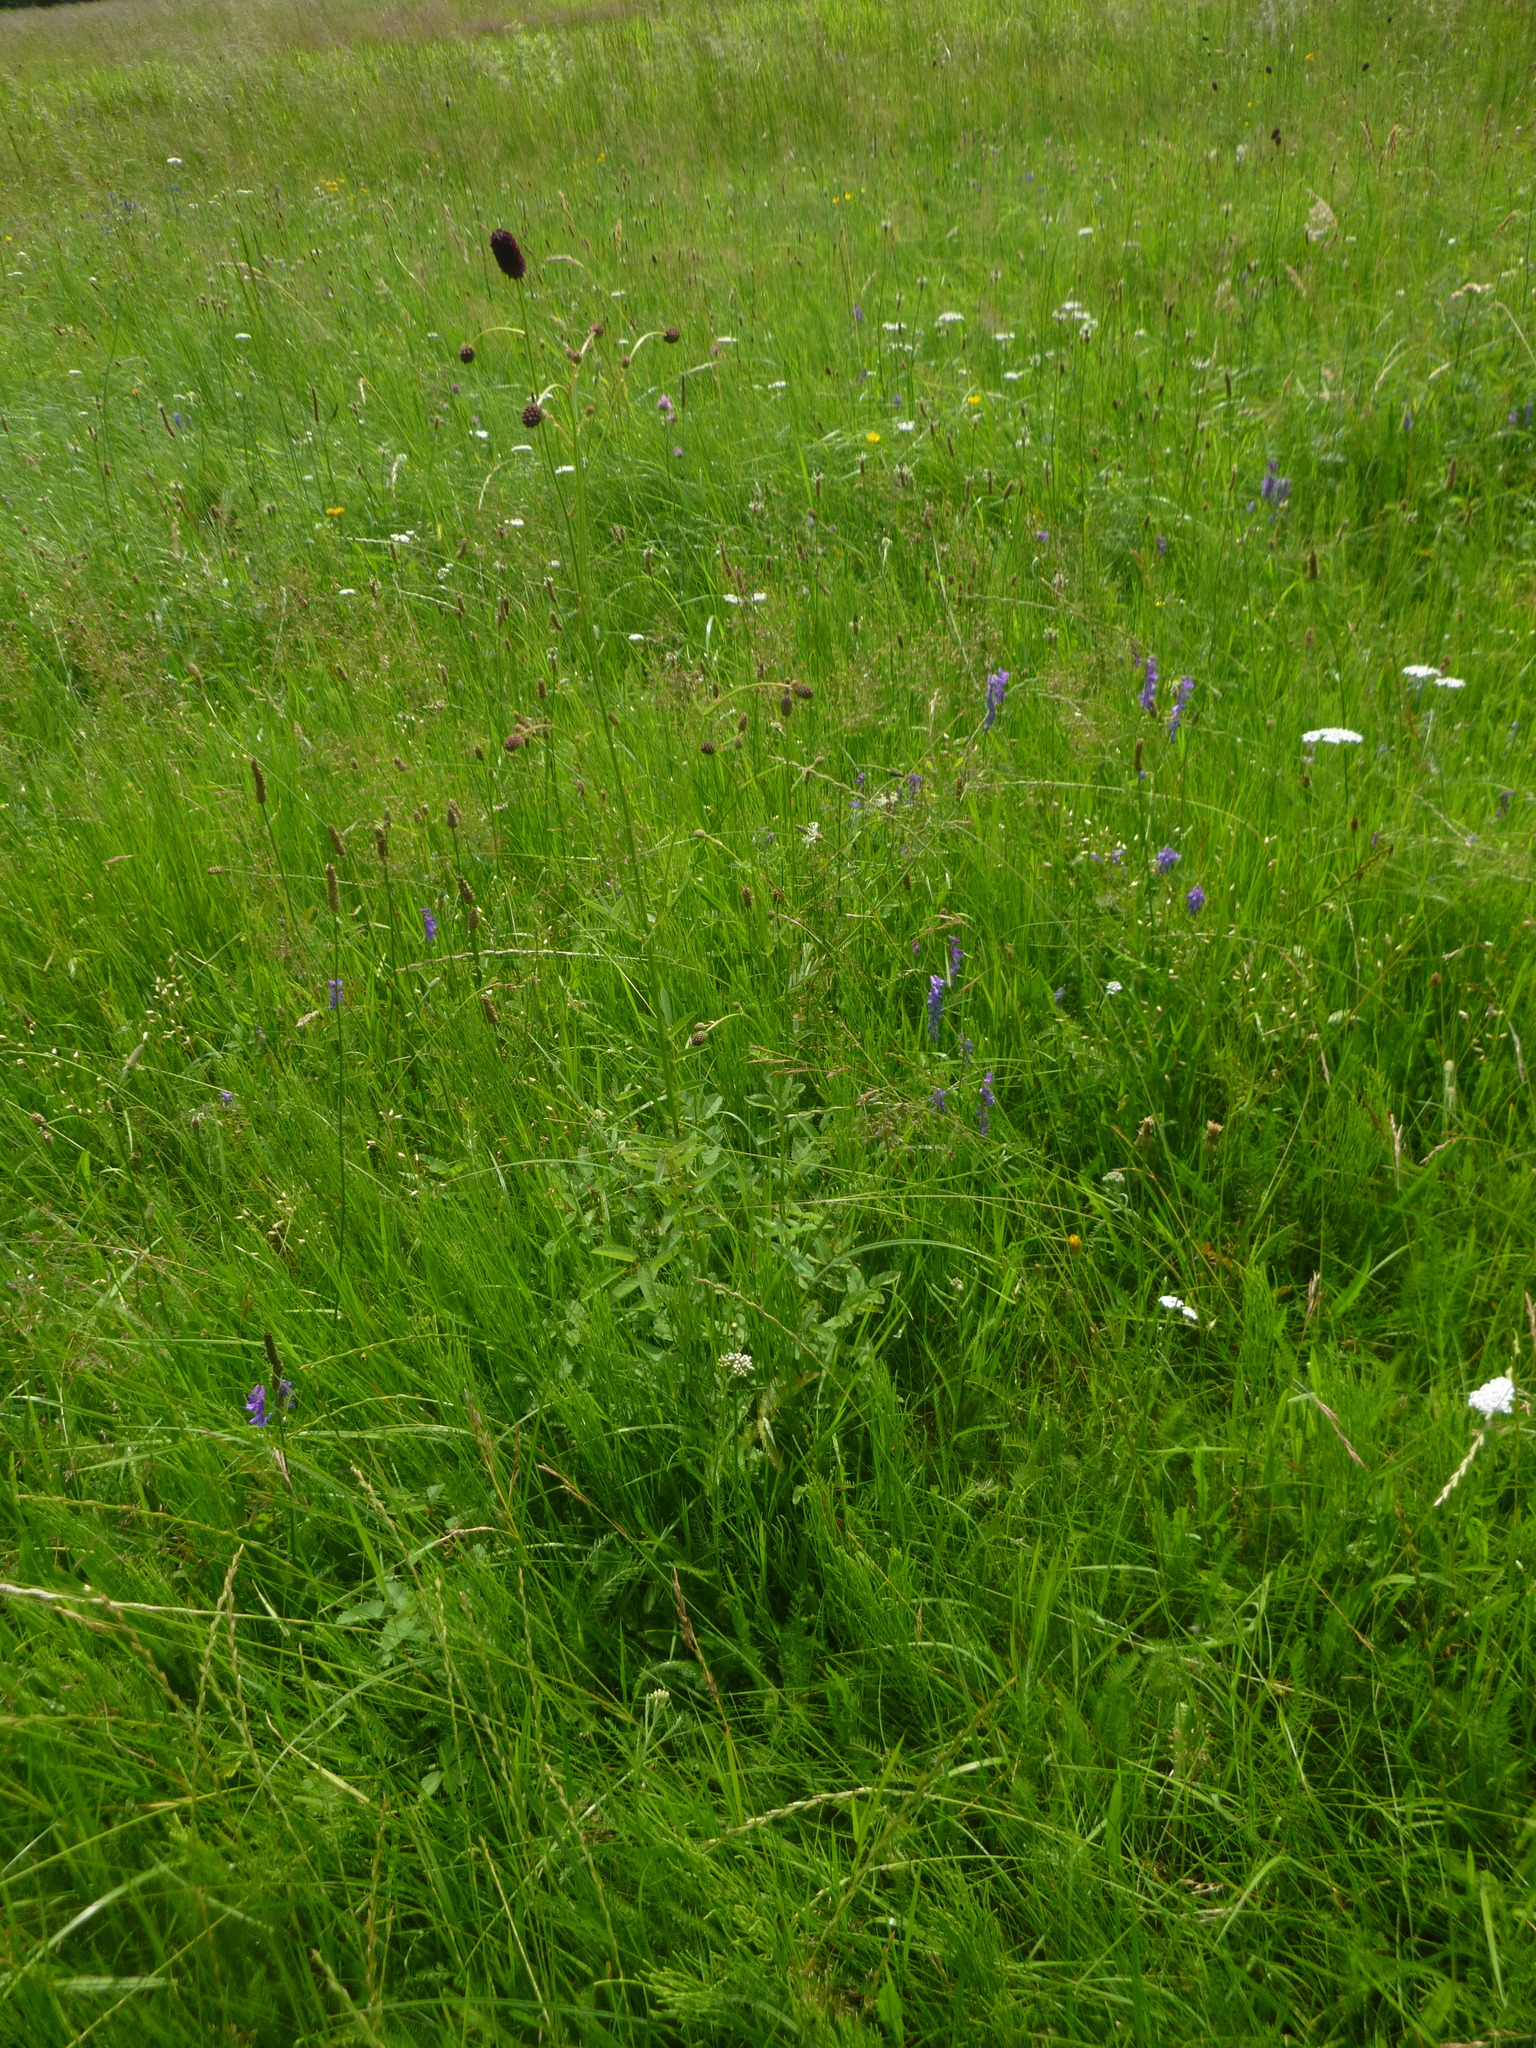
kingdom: Plantae
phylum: Tracheophyta
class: Magnoliopsida
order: Rosales
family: Rosaceae
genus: Sanguisorba
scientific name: Sanguisorba officinalis
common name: Great burnet
